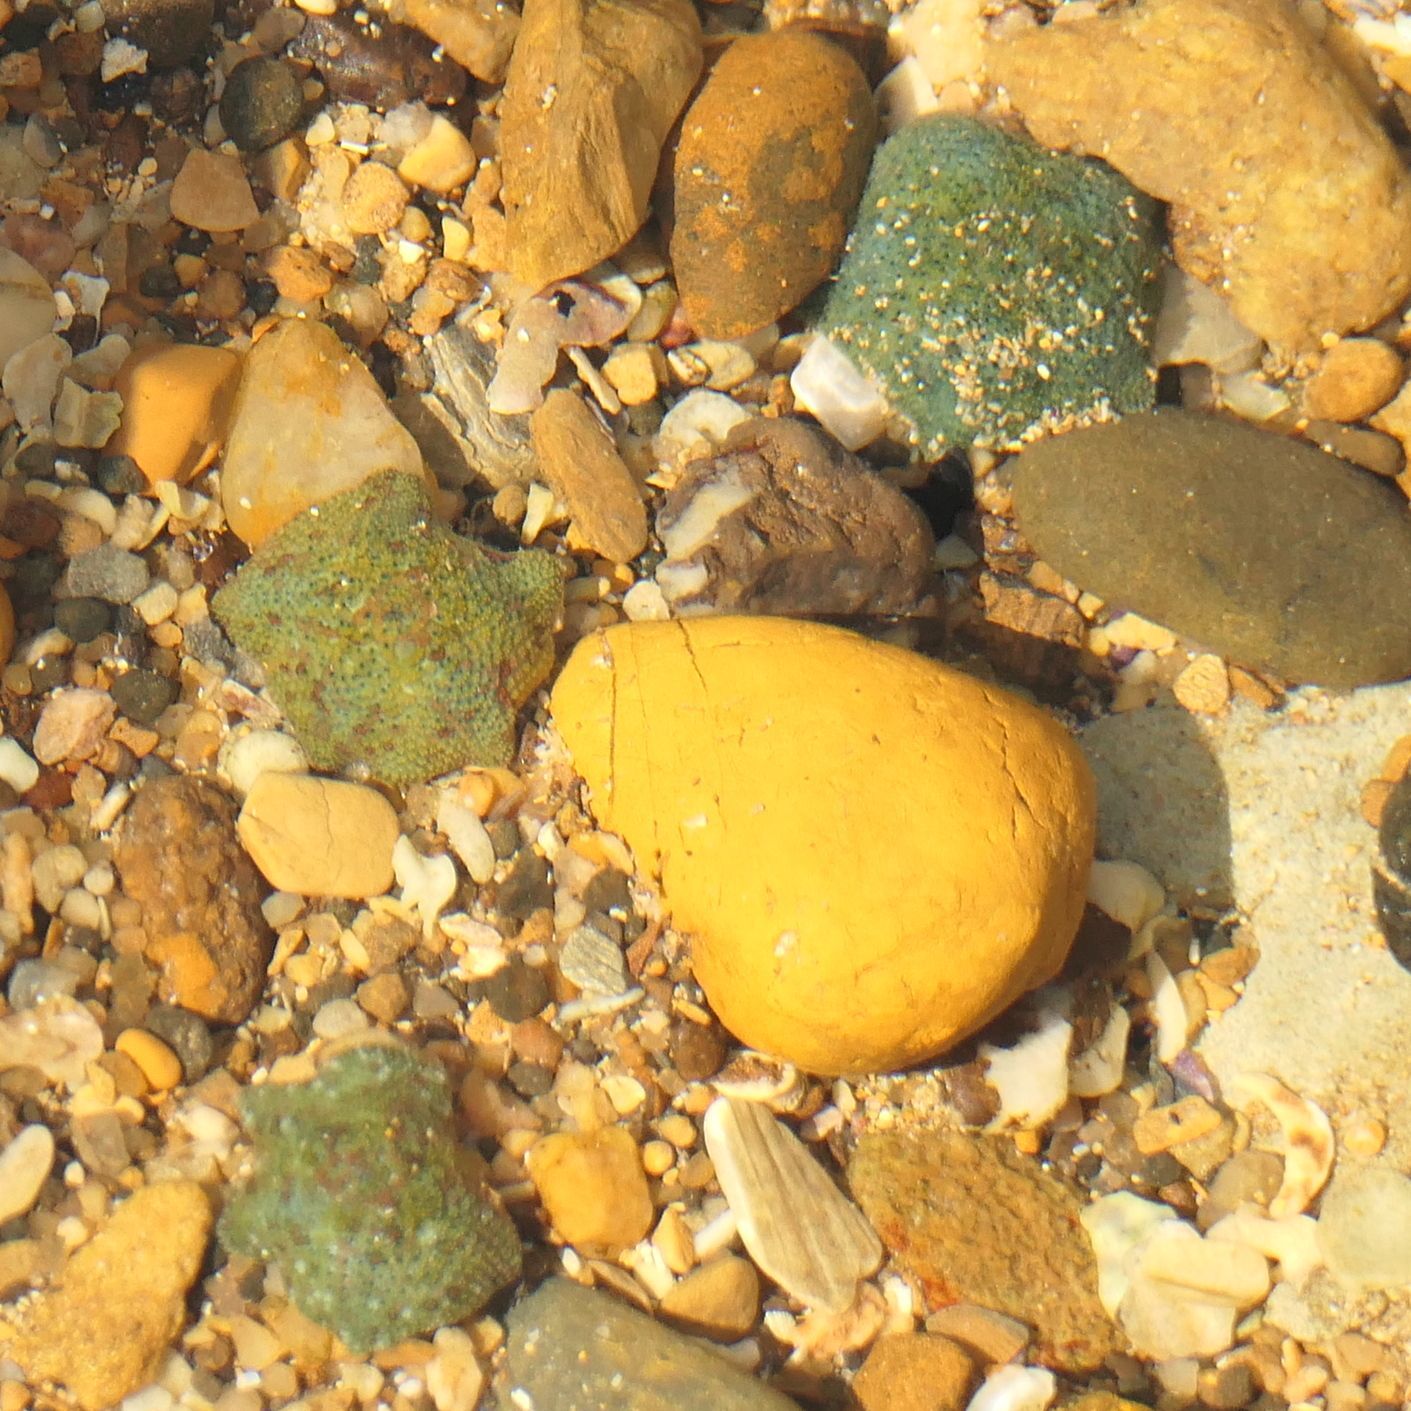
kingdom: Animalia
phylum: Echinodermata
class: Asteroidea
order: Valvatida
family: Asterinidae
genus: Parvulastra
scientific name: Parvulastra exigua
